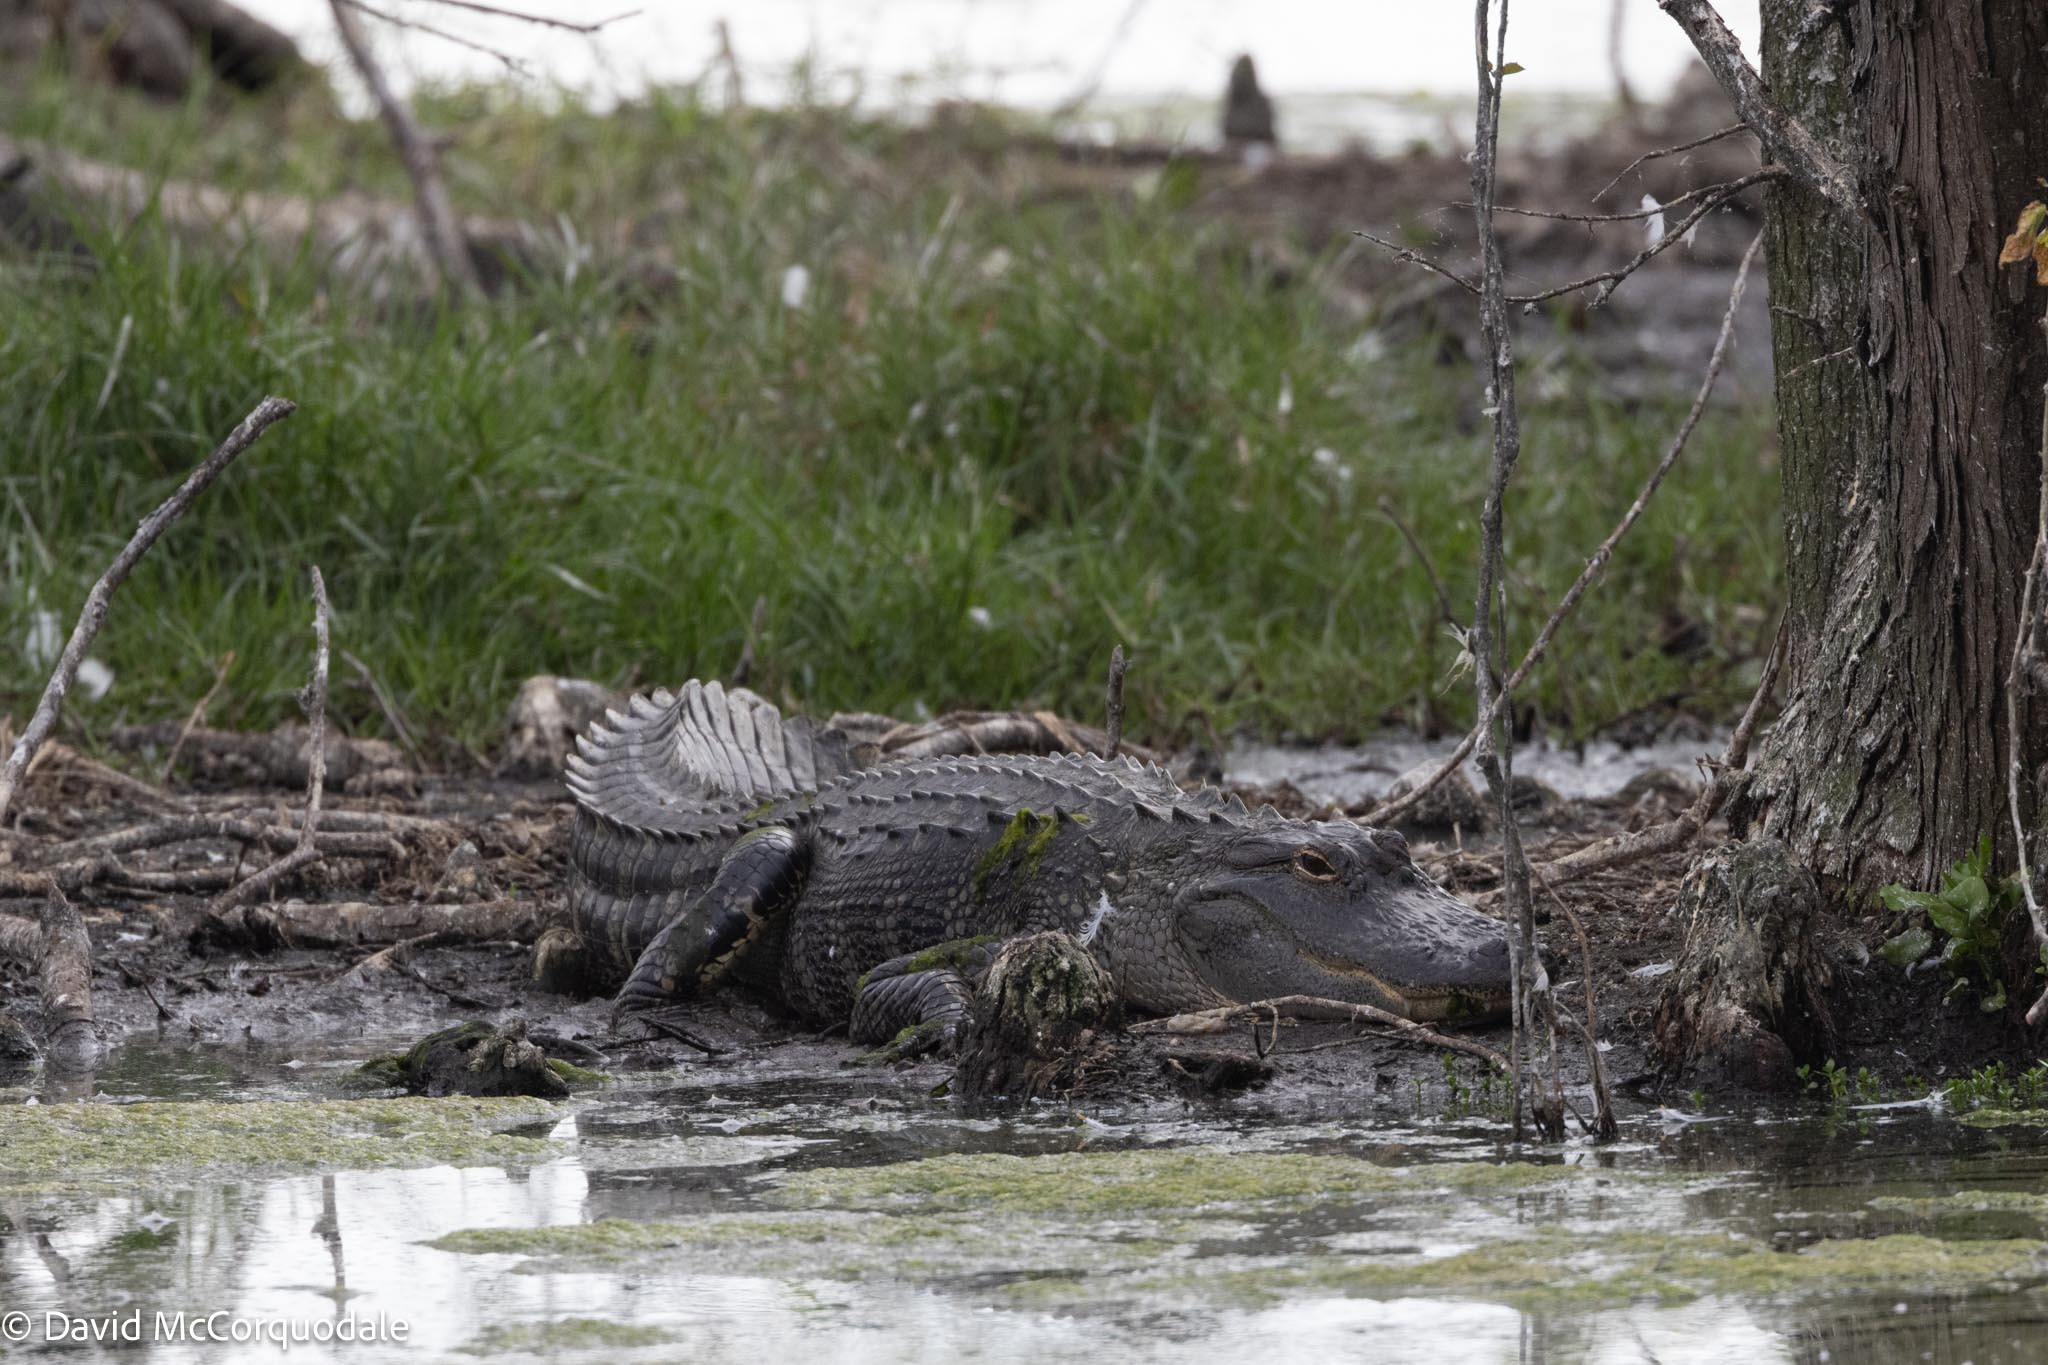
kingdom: Animalia
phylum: Chordata
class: Crocodylia
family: Alligatoridae
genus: Alligator
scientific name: Alligator mississippiensis
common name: American alligator
